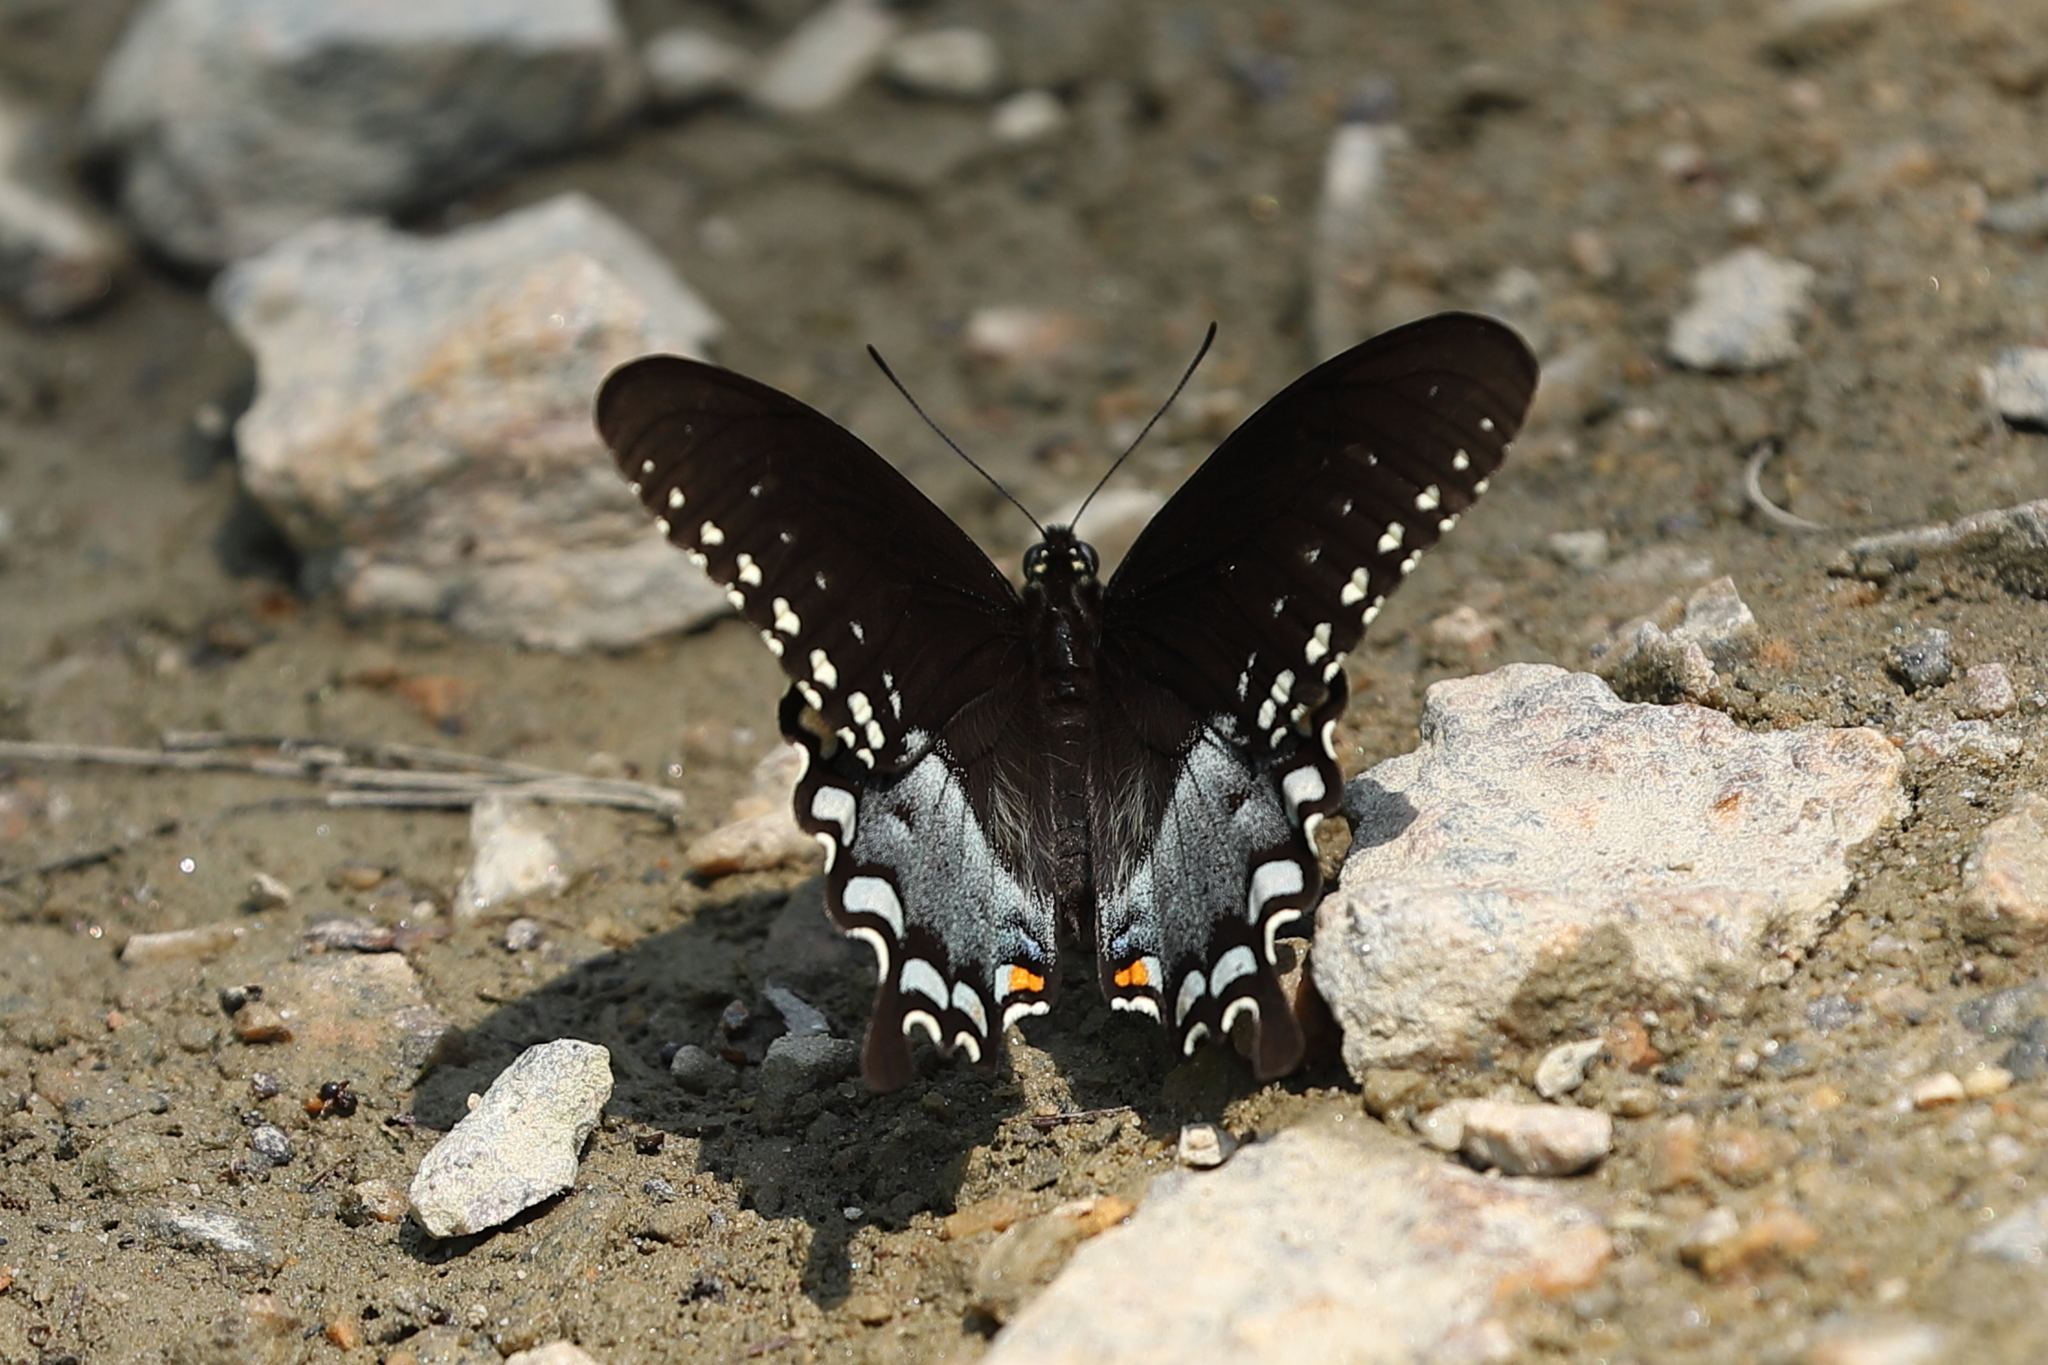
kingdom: Animalia
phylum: Arthropoda
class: Insecta
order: Lepidoptera
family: Papilionidae
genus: Papilio
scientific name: Papilio troilus
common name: Spicebush swallowtail
